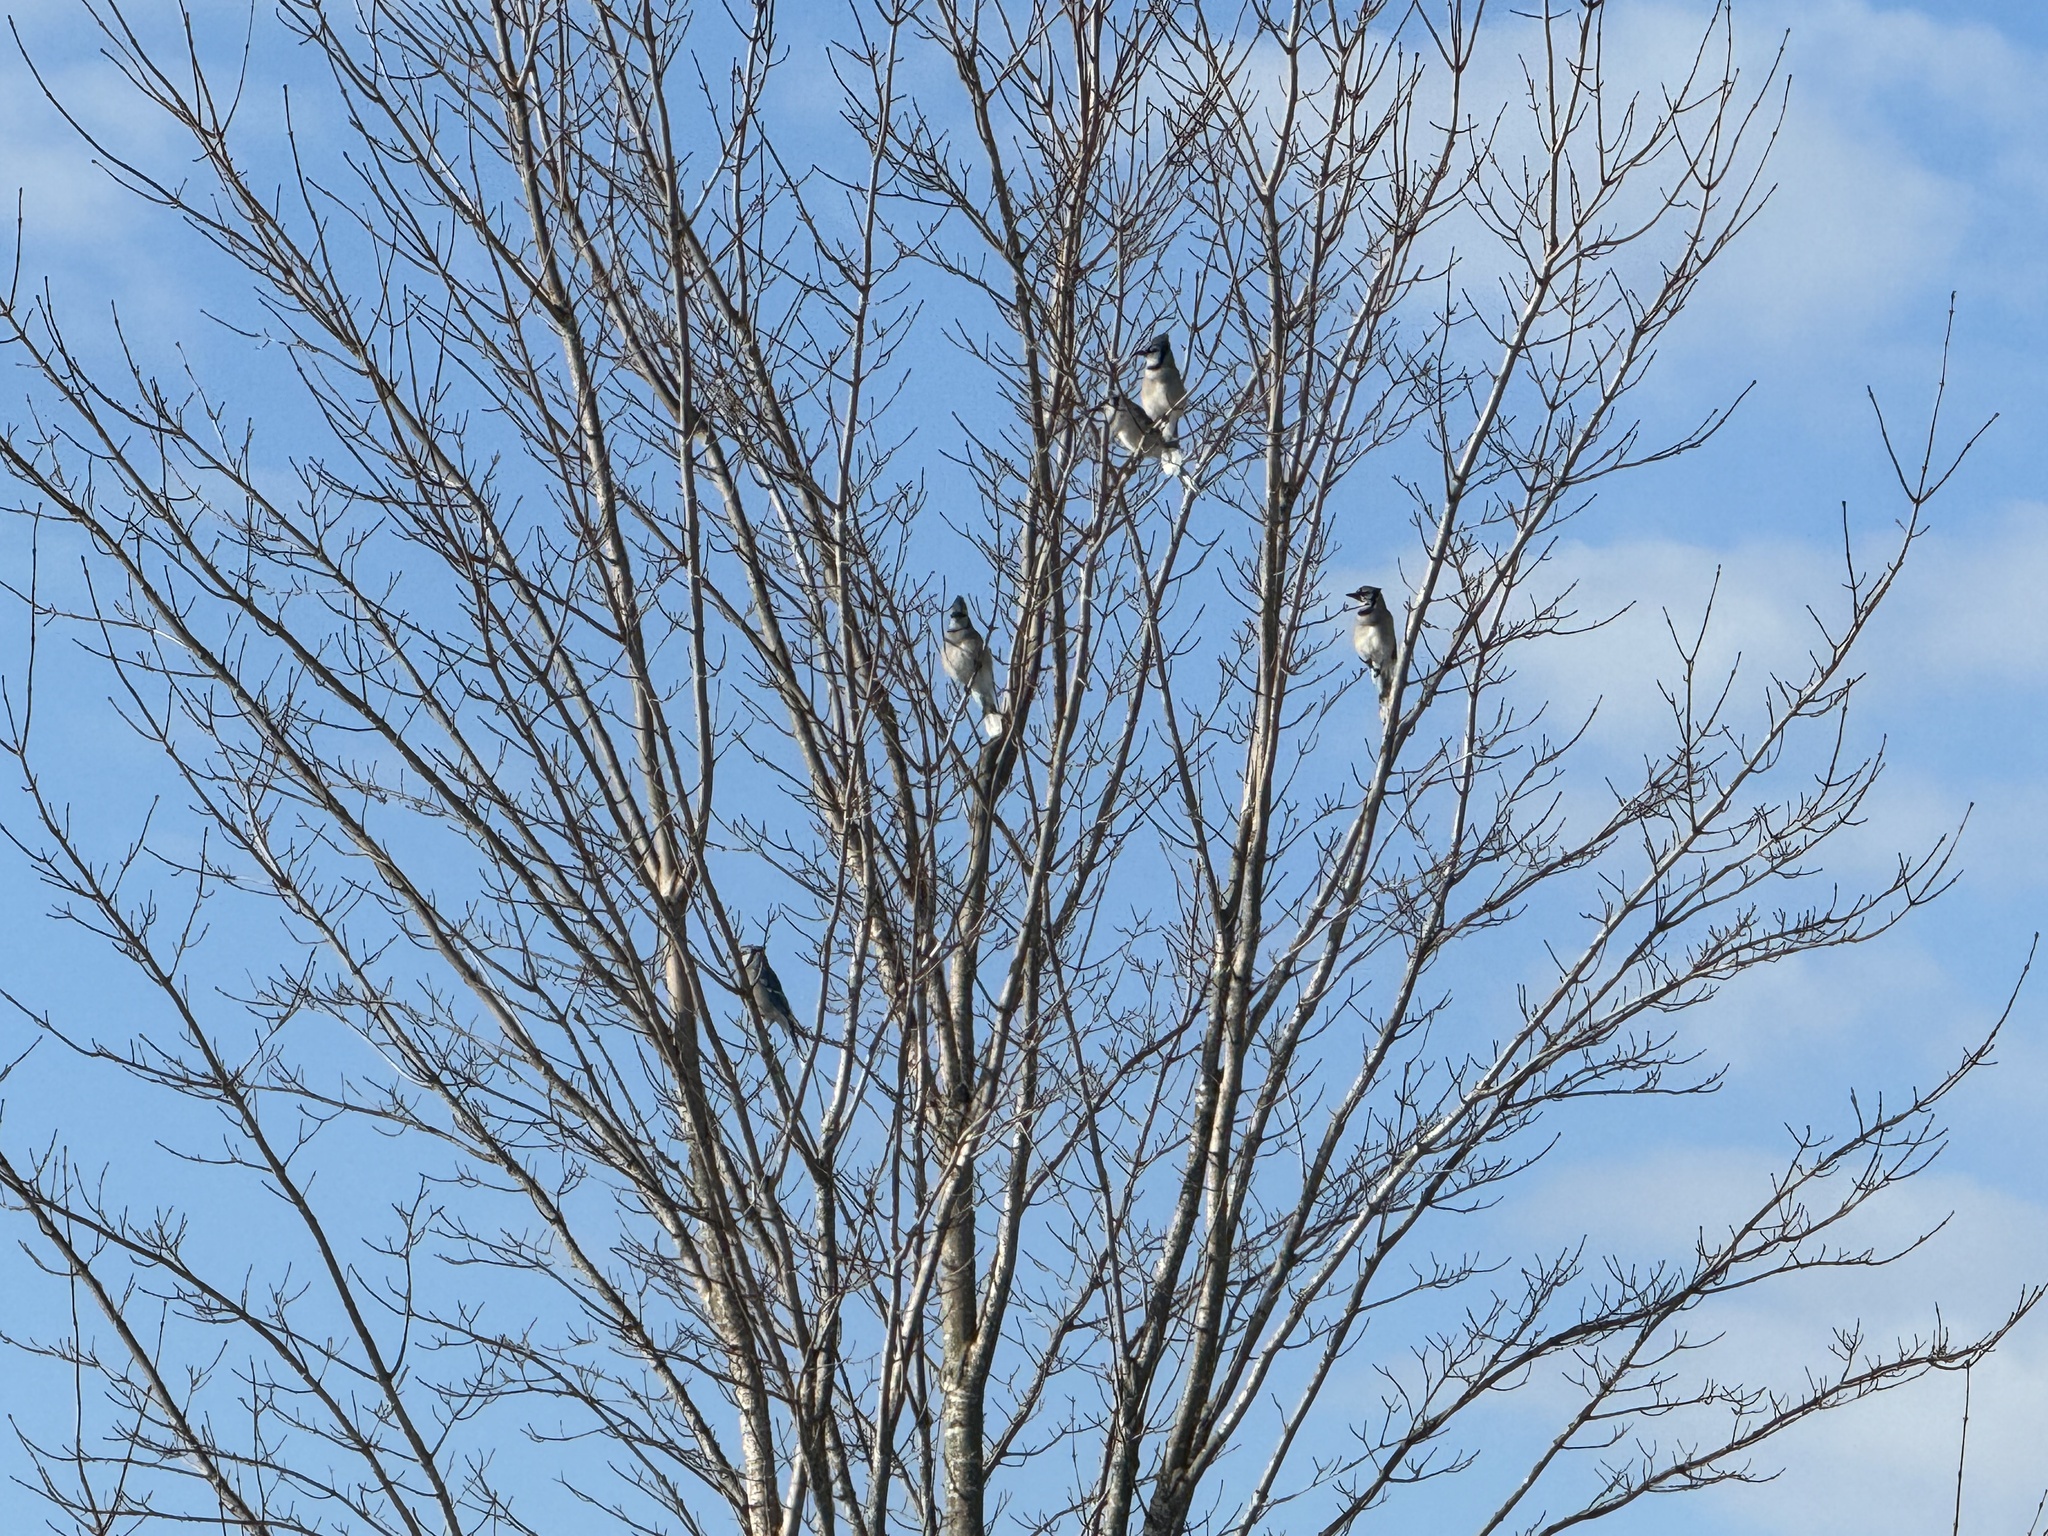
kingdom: Animalia
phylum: Chordata
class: Aves
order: Passeriformes
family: Corvidae
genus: Cyanocitta
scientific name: Cyanocitta cristata
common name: Blue jay
